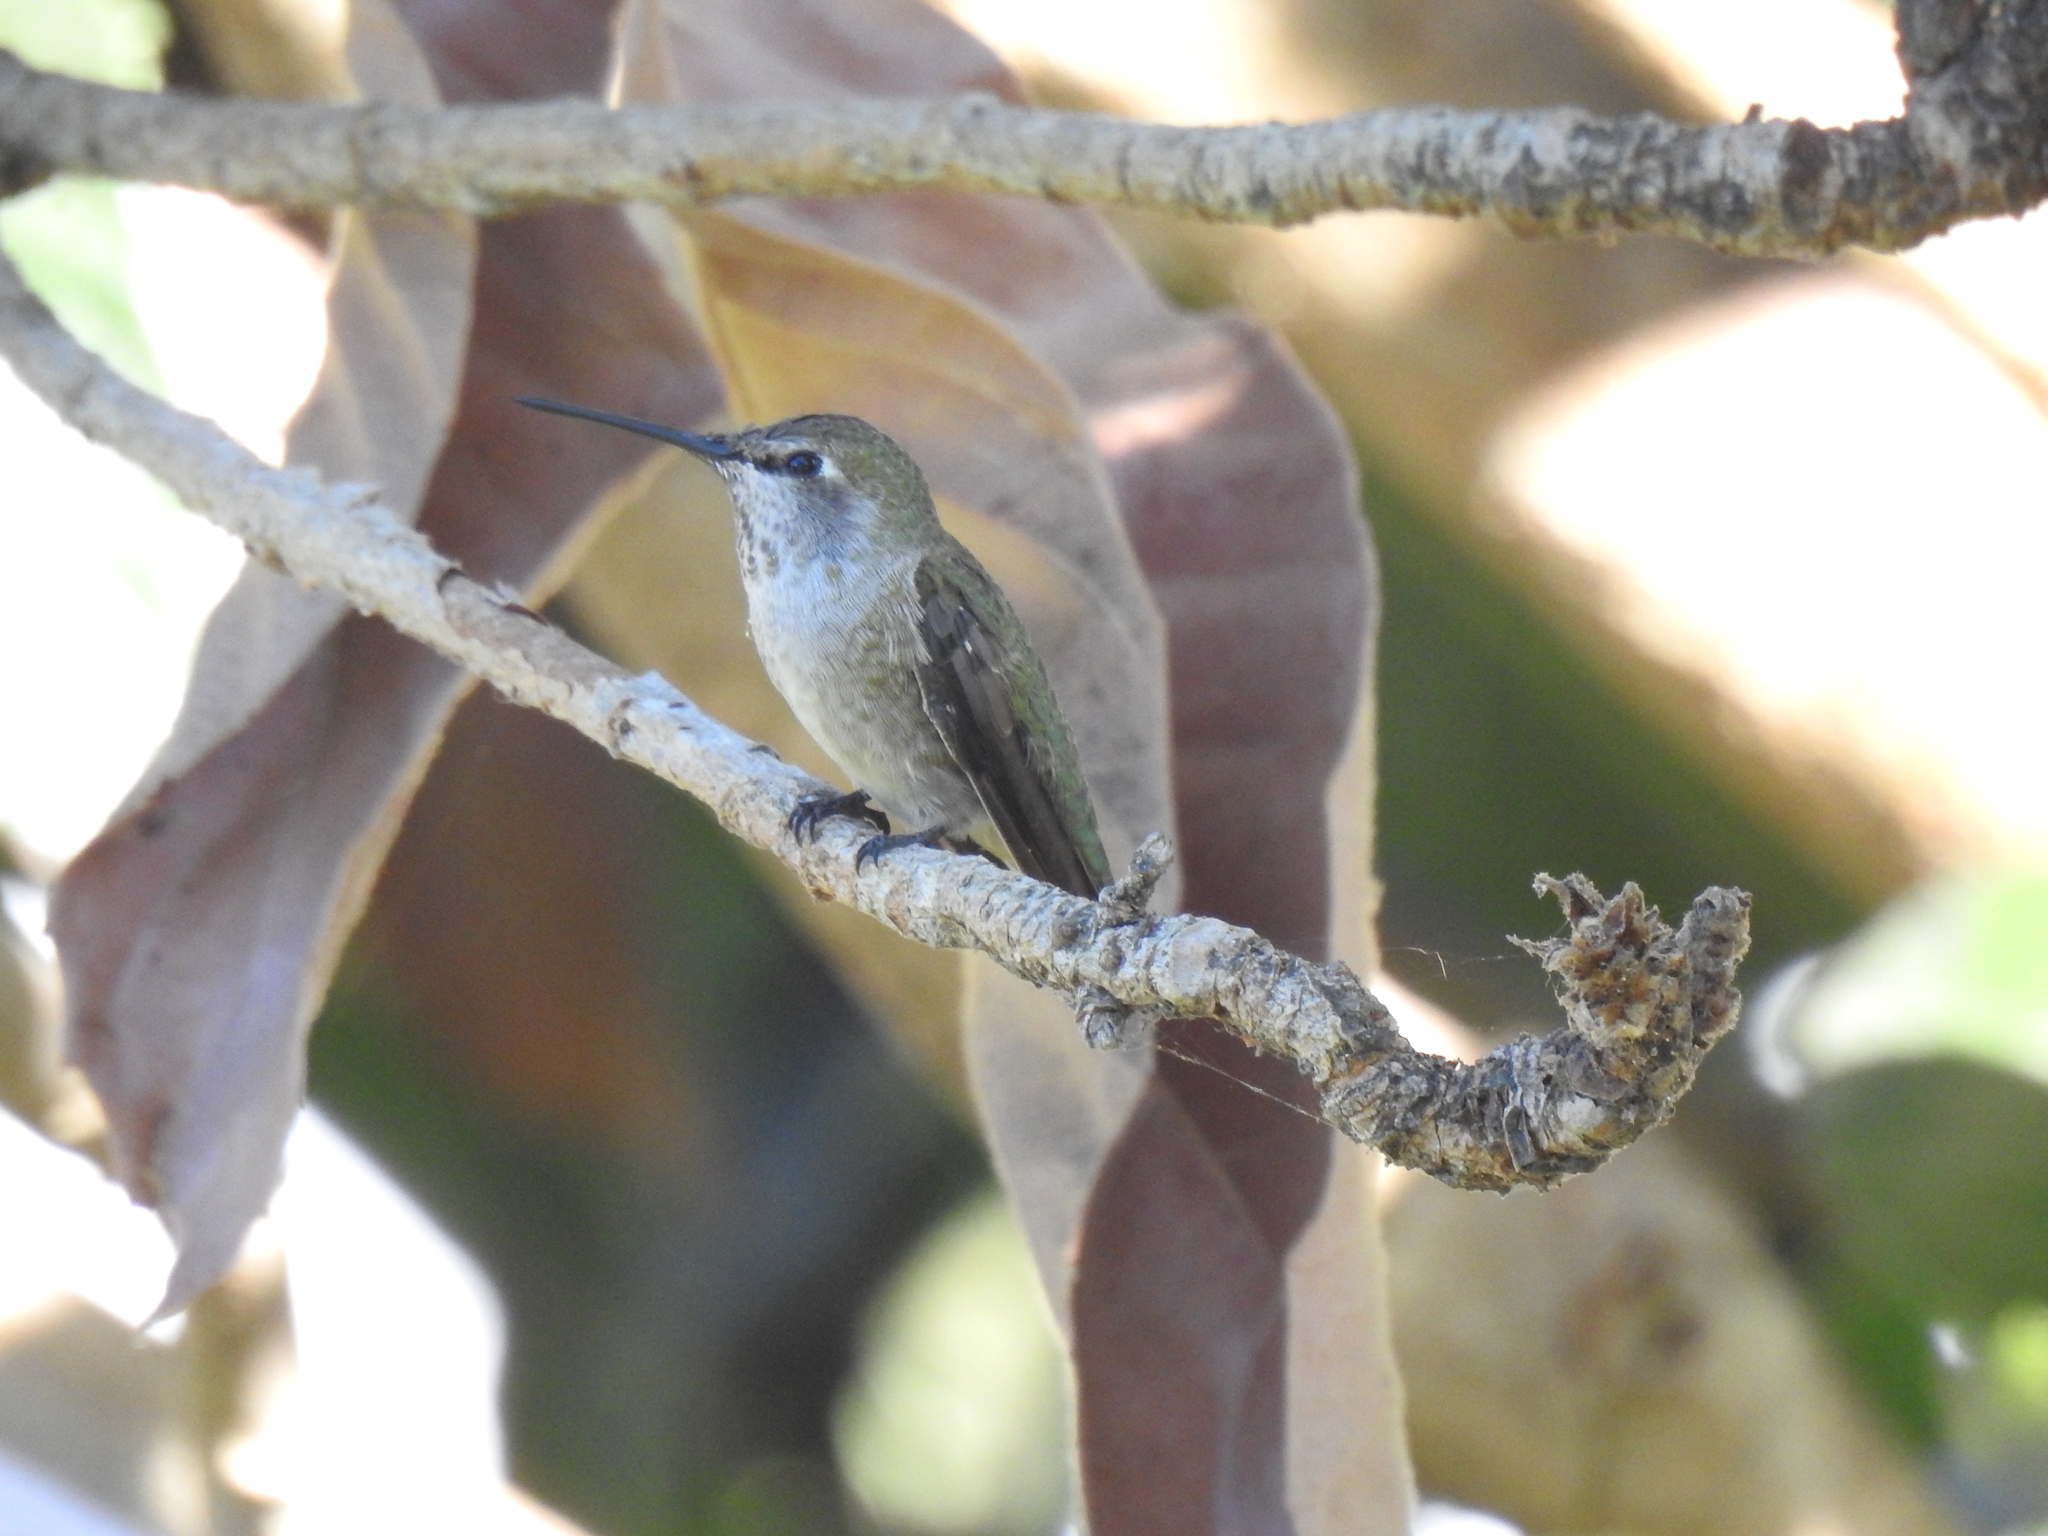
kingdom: Animalia
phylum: Chordata
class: Aves
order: Apodiformes
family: Trochilidae
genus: Calypte
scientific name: Calypte anna
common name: Anna's hummingbird
